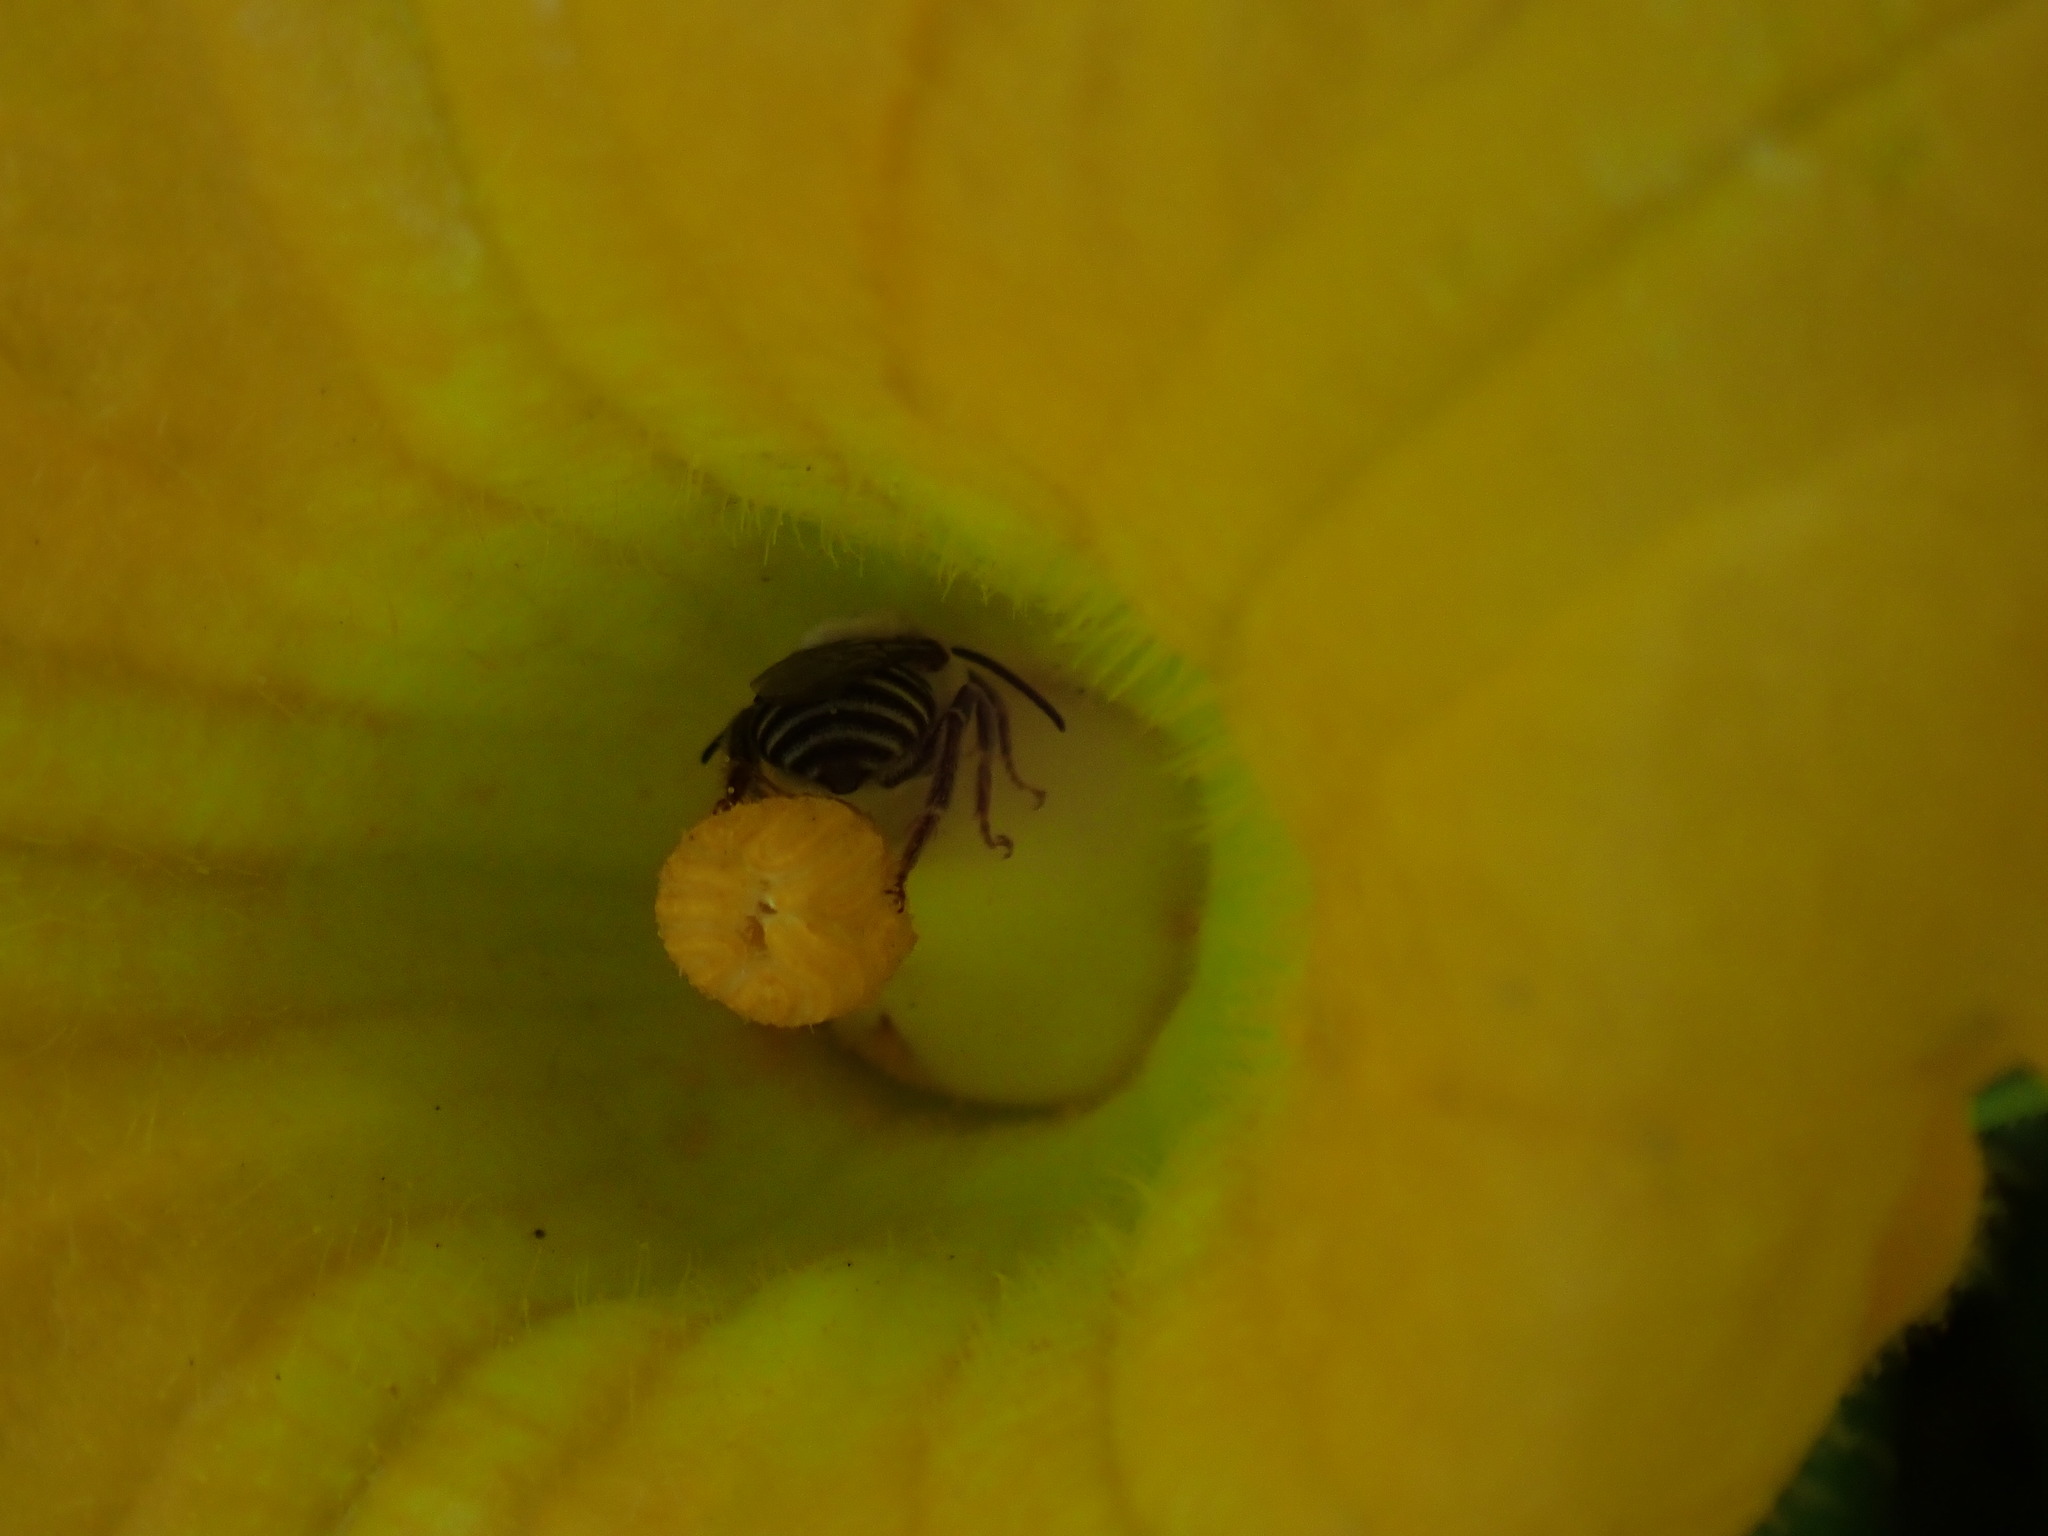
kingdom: Animalia
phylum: Arthropoda
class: Insecta
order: Hymenoptera
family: Apidae
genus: Peponapis
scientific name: Peponapis pruinosa
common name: Pruinose squash bee
